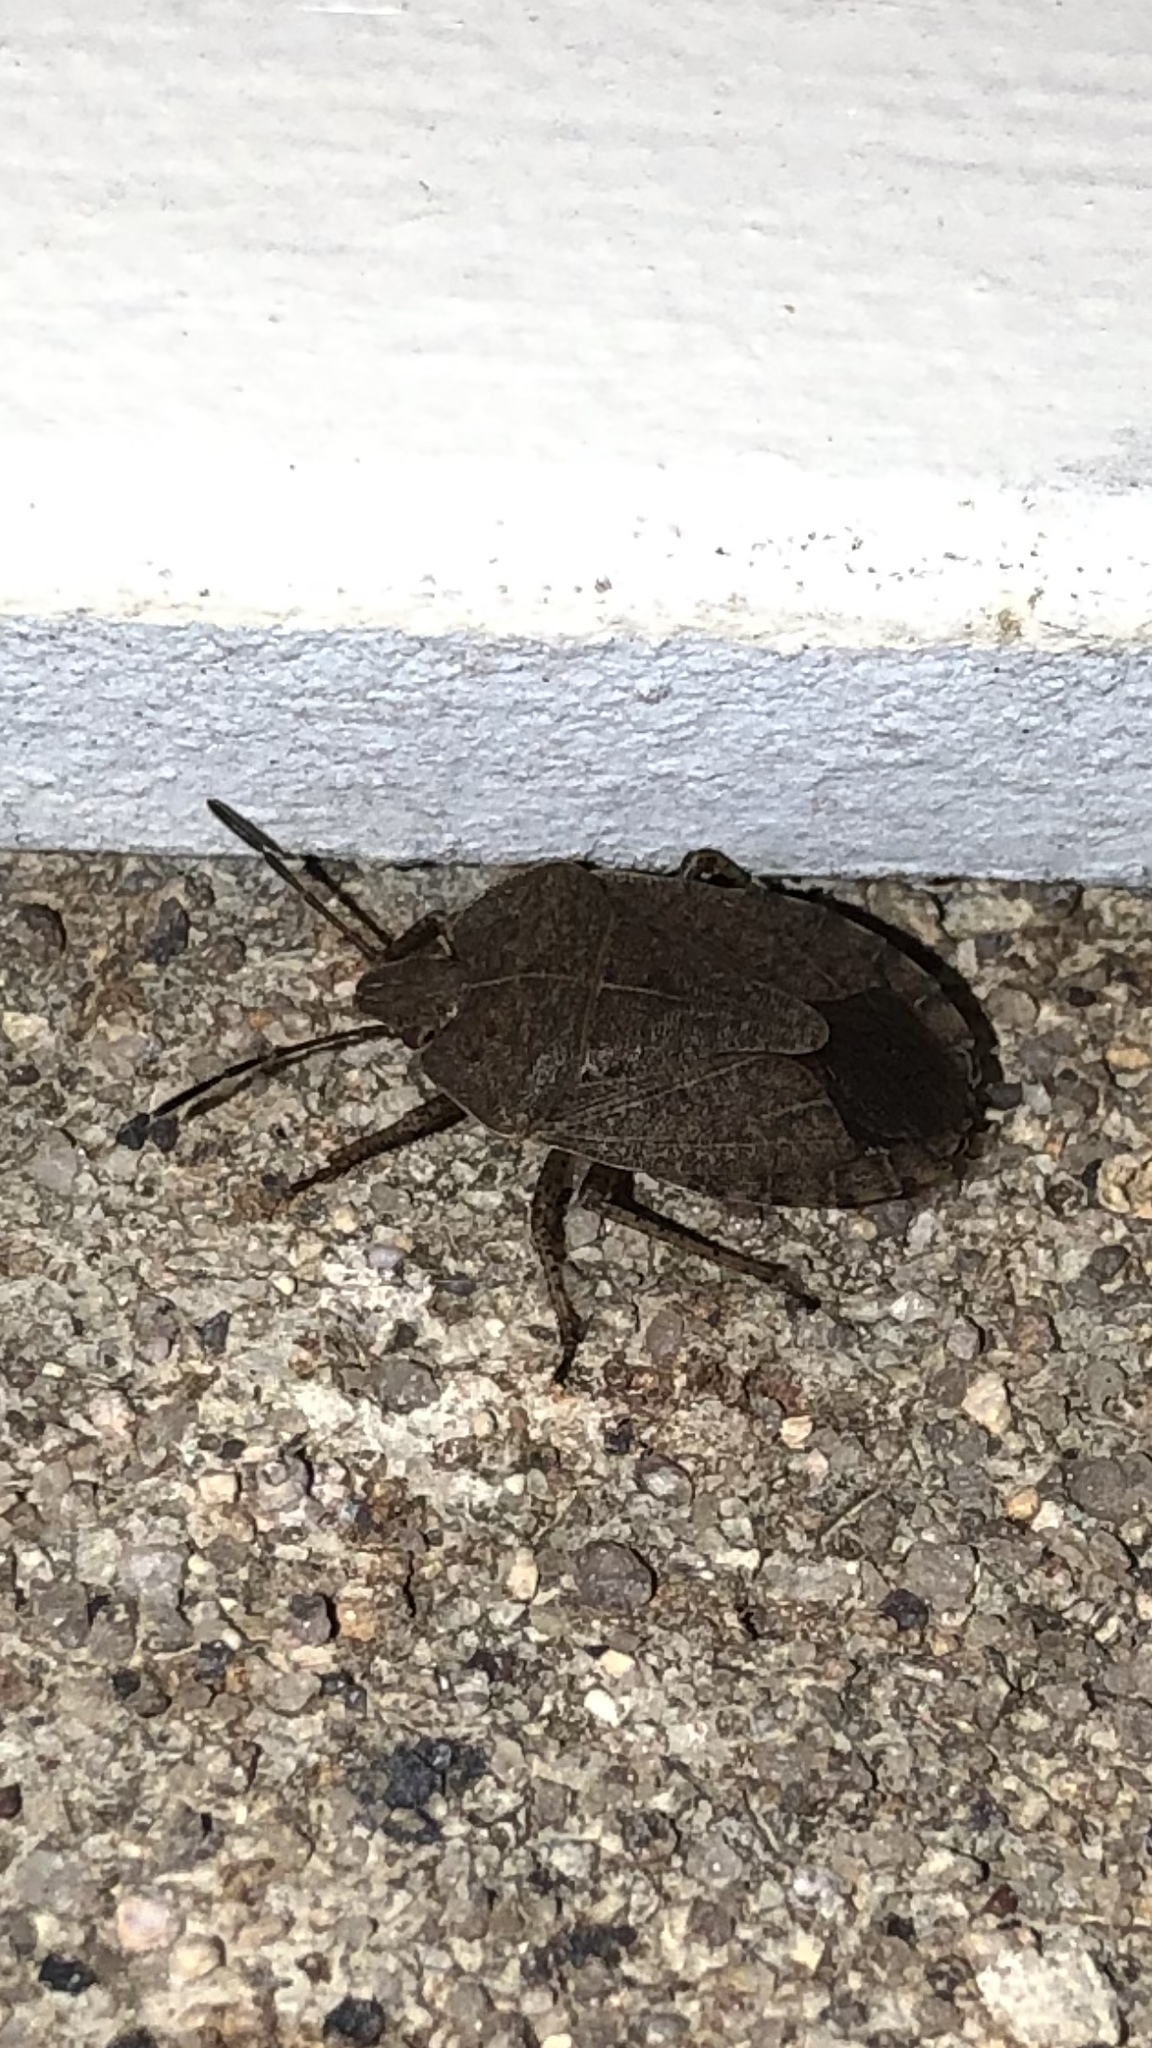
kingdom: Animalia
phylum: Arthropoda
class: Insecta
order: Hemiptera
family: Pentatomidae
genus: Menecles
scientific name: Menecles insertus
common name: Elf shoe stink bug
